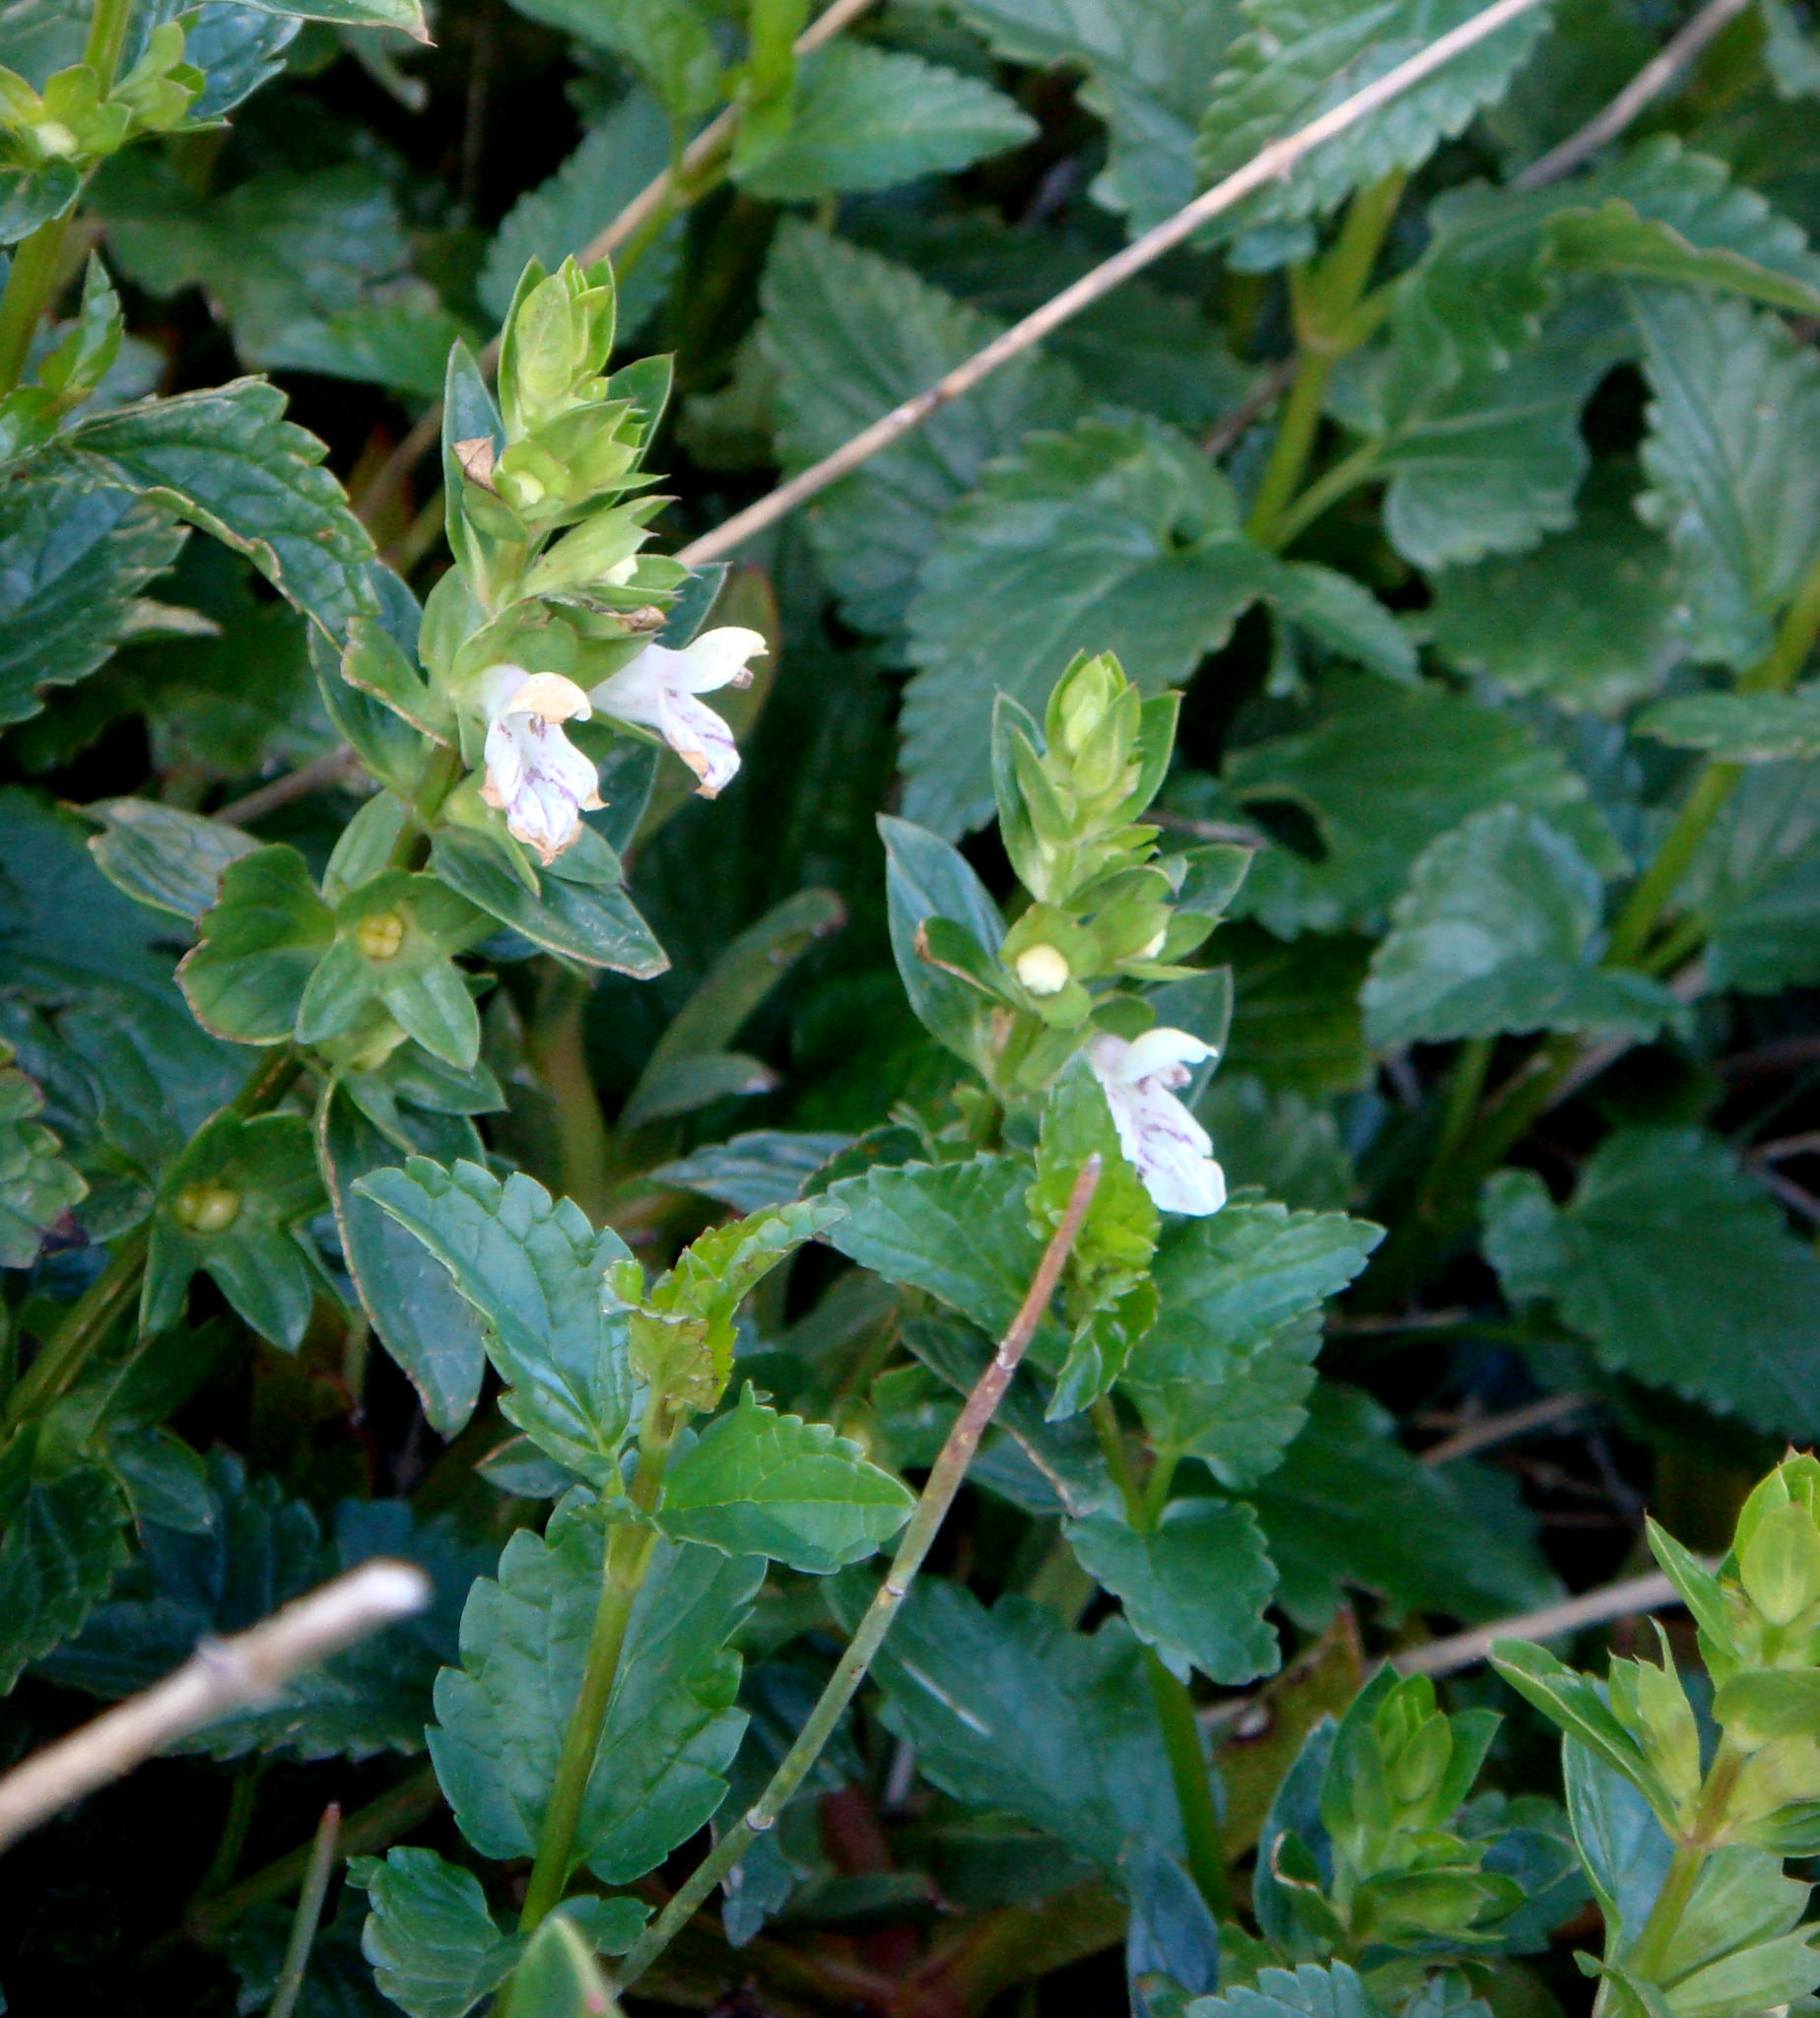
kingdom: Plantae
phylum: Tracheophyta
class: Magnoliopsida
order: Lamiales
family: Lamiaceae
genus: Prasium
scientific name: Prasium majus
